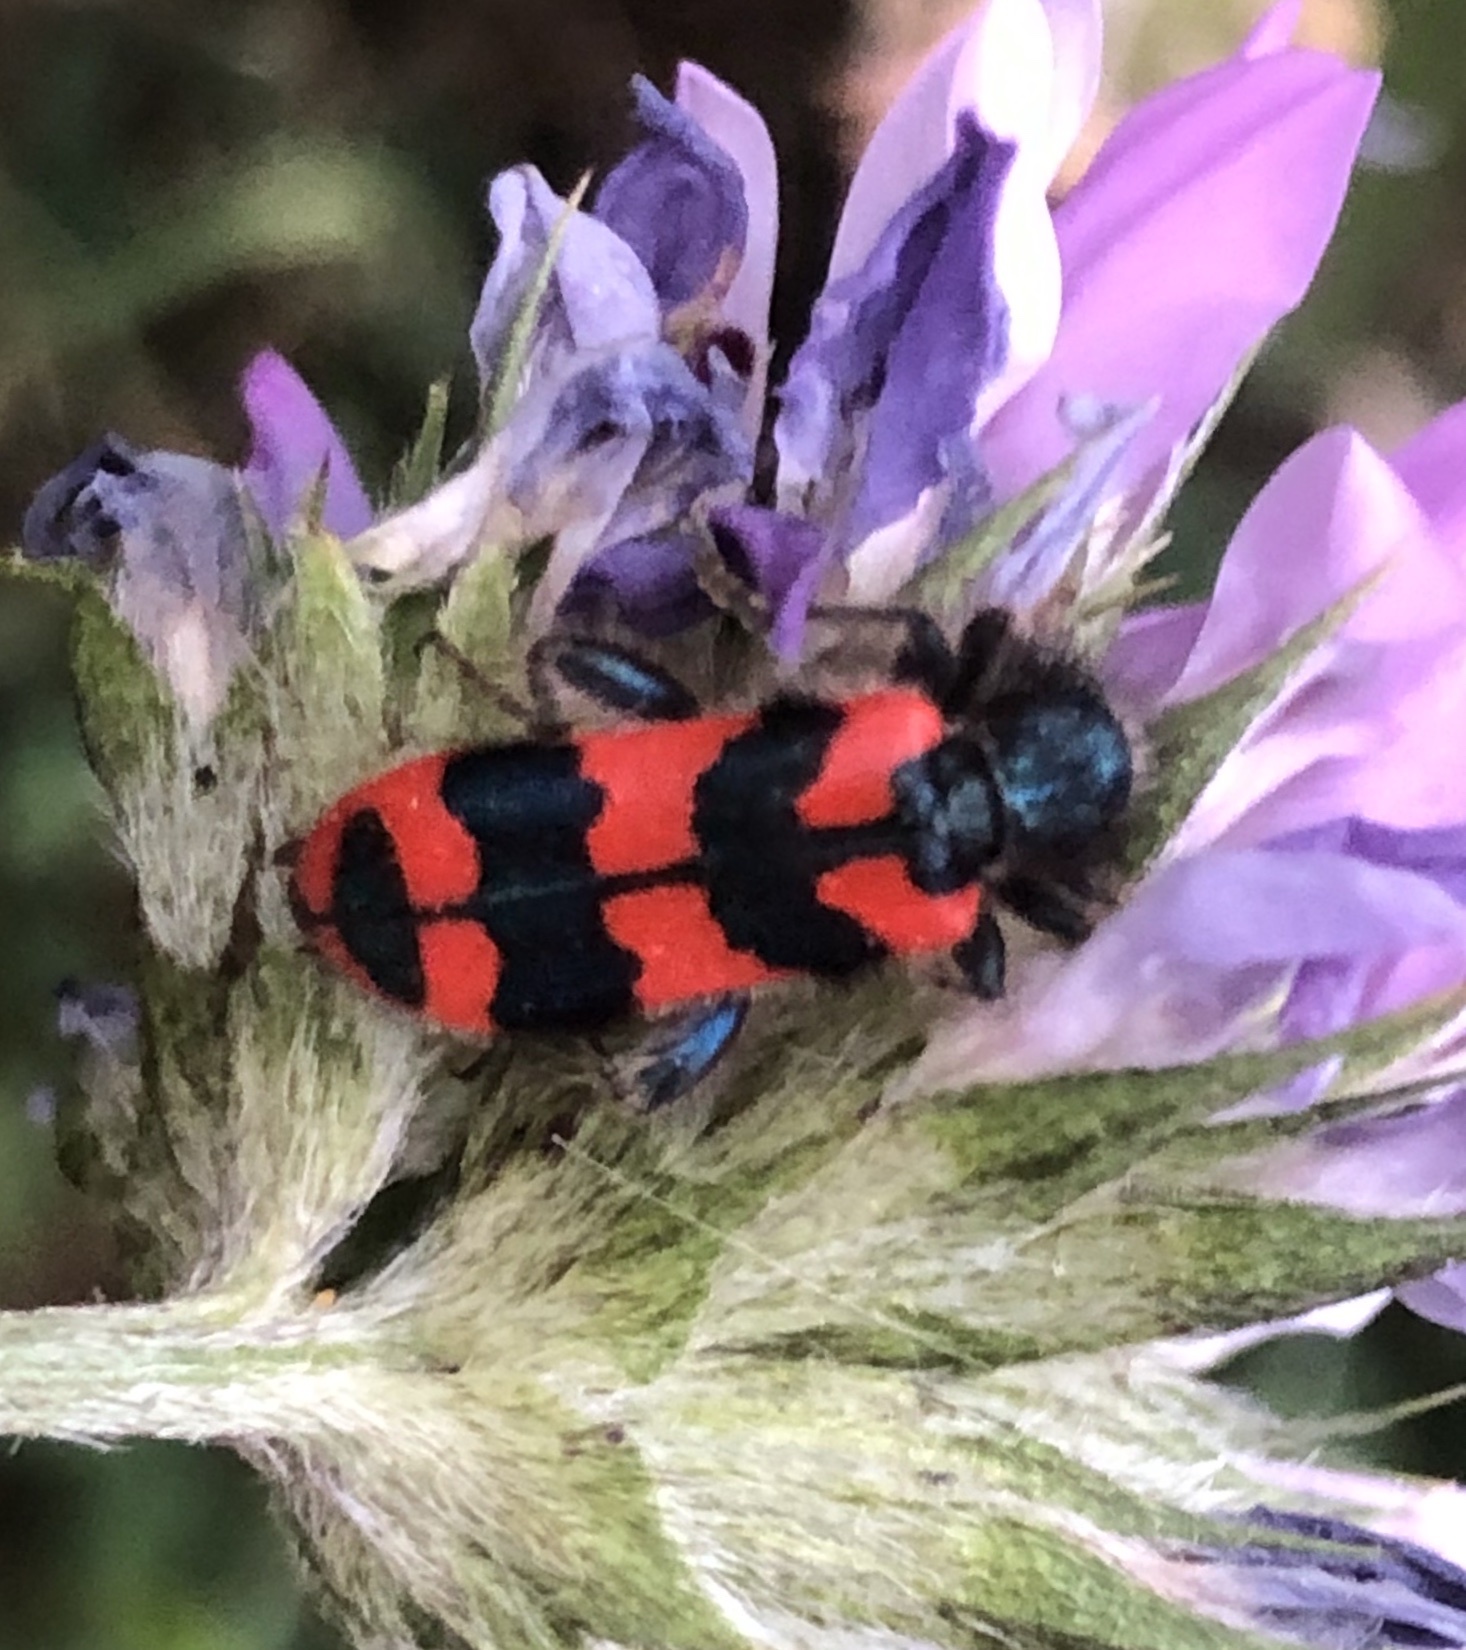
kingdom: Animalia
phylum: Arthropoda
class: Insecta
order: Coleoptera
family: Cleridae
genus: Trichodes
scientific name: Trichodes alvearius
